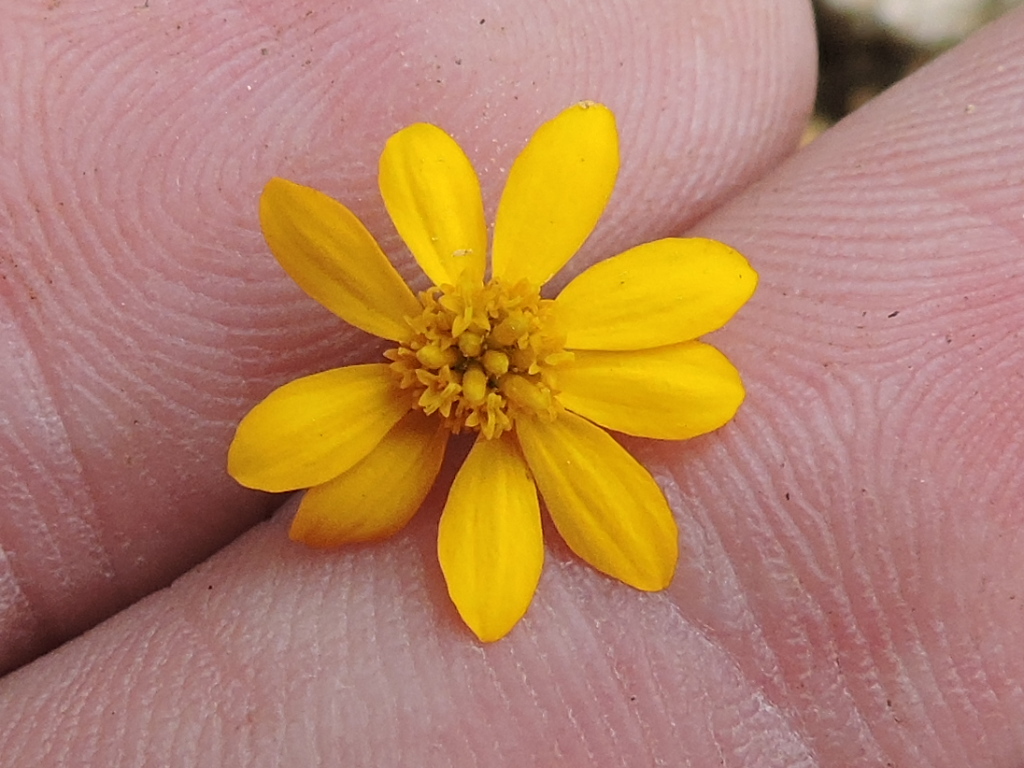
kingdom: Plantae
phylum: Tracheophyta
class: Magnoliopsida
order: Asterales
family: Asteraceae
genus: Thymophylla
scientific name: Thymophylla pentachaeta
